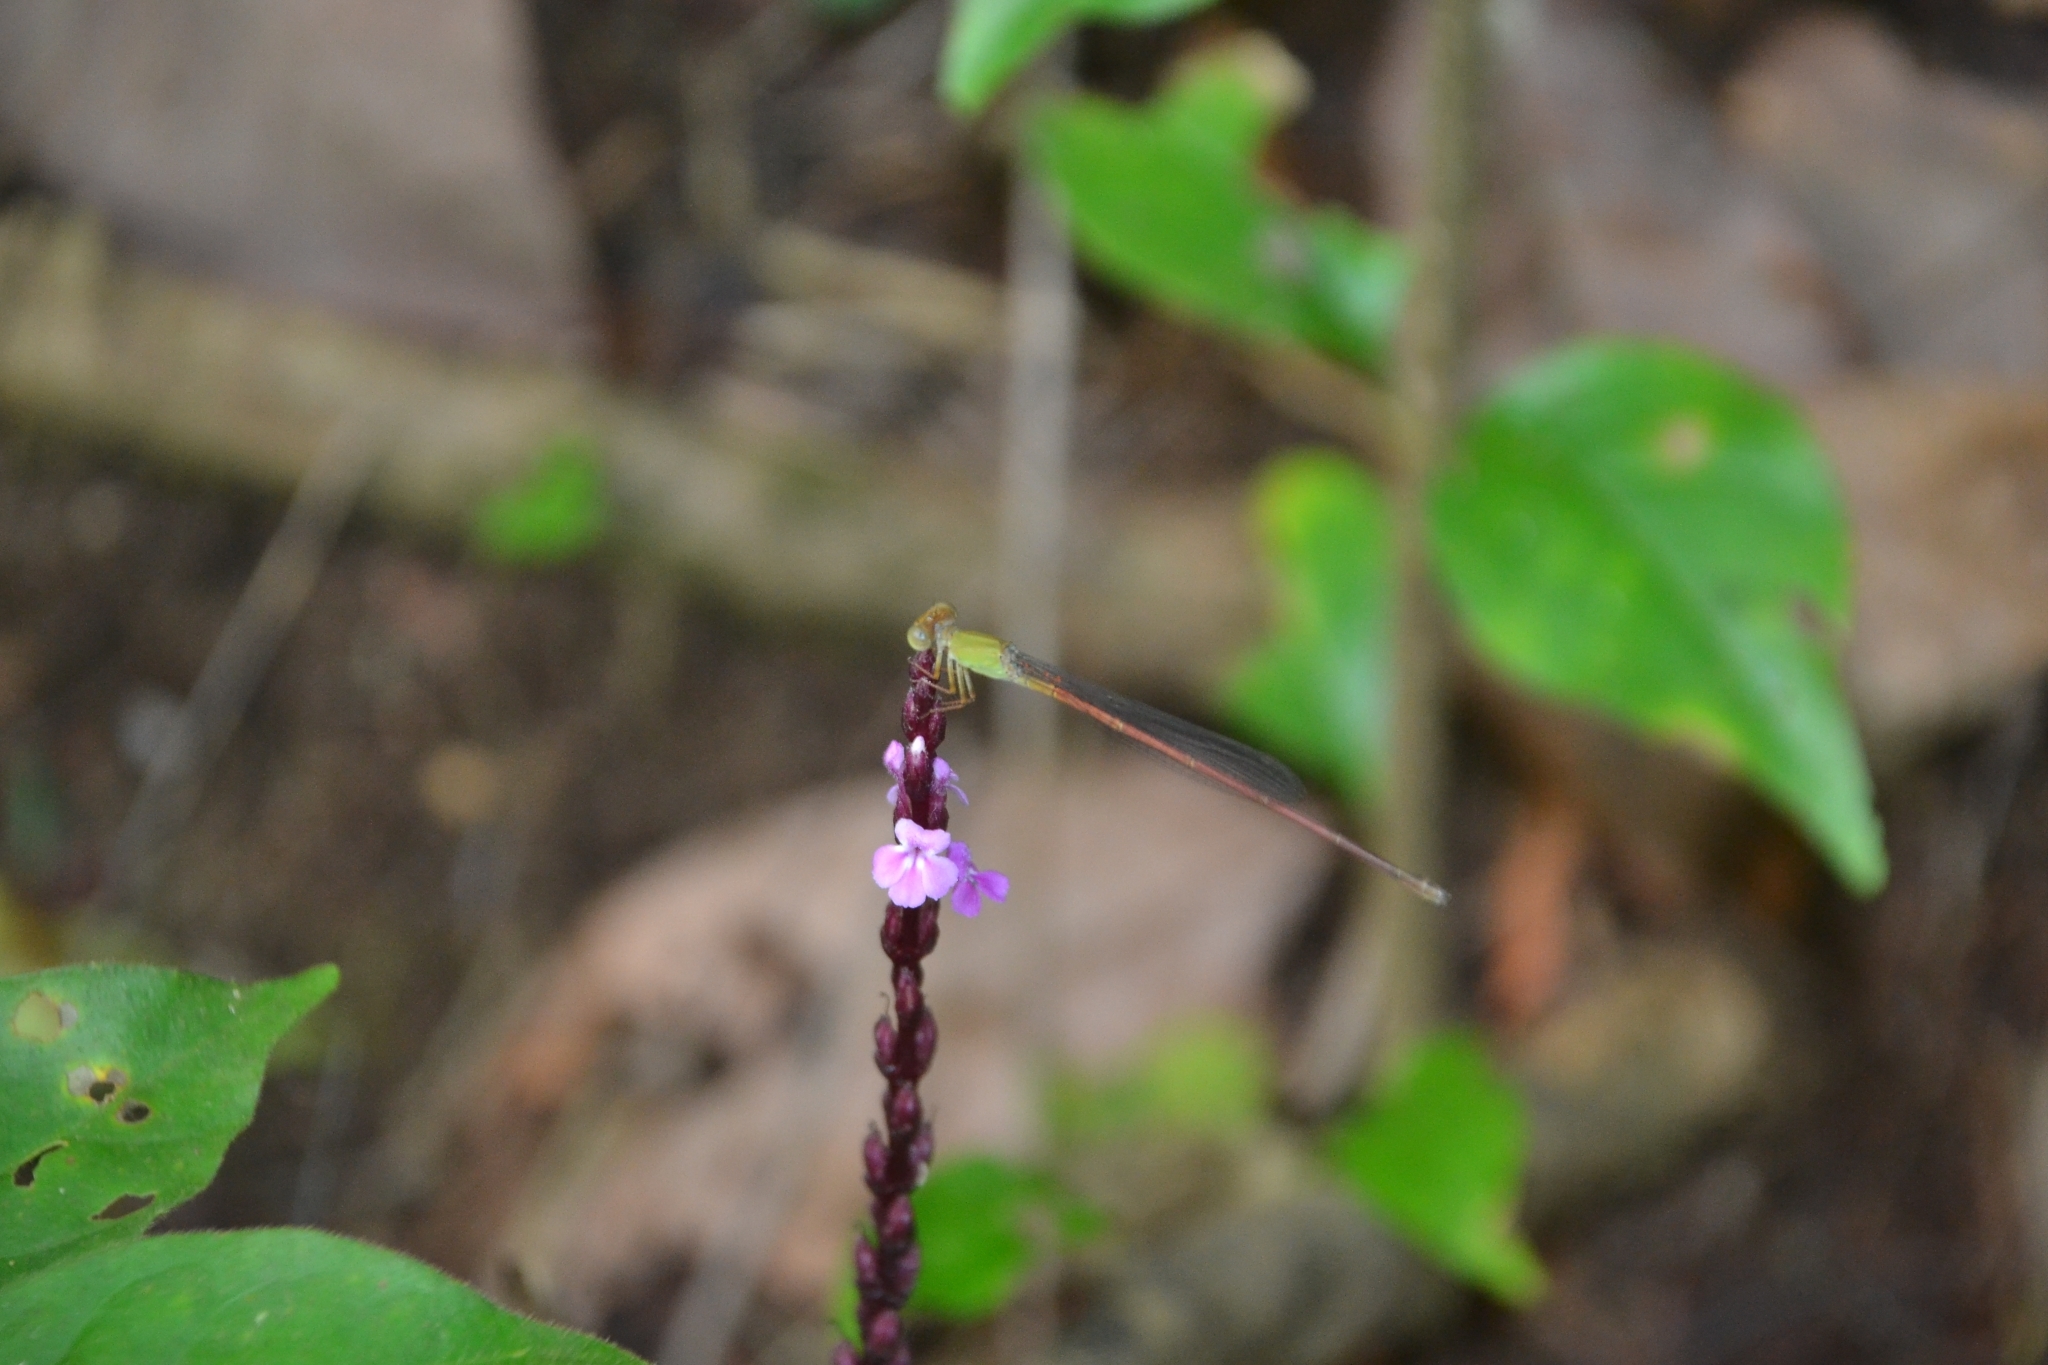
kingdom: Animalia
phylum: Arthropoda
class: Insecta
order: Odonata
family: Coenagrionidae
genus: Ceriagrion
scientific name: Ceriagrion olivaceum
